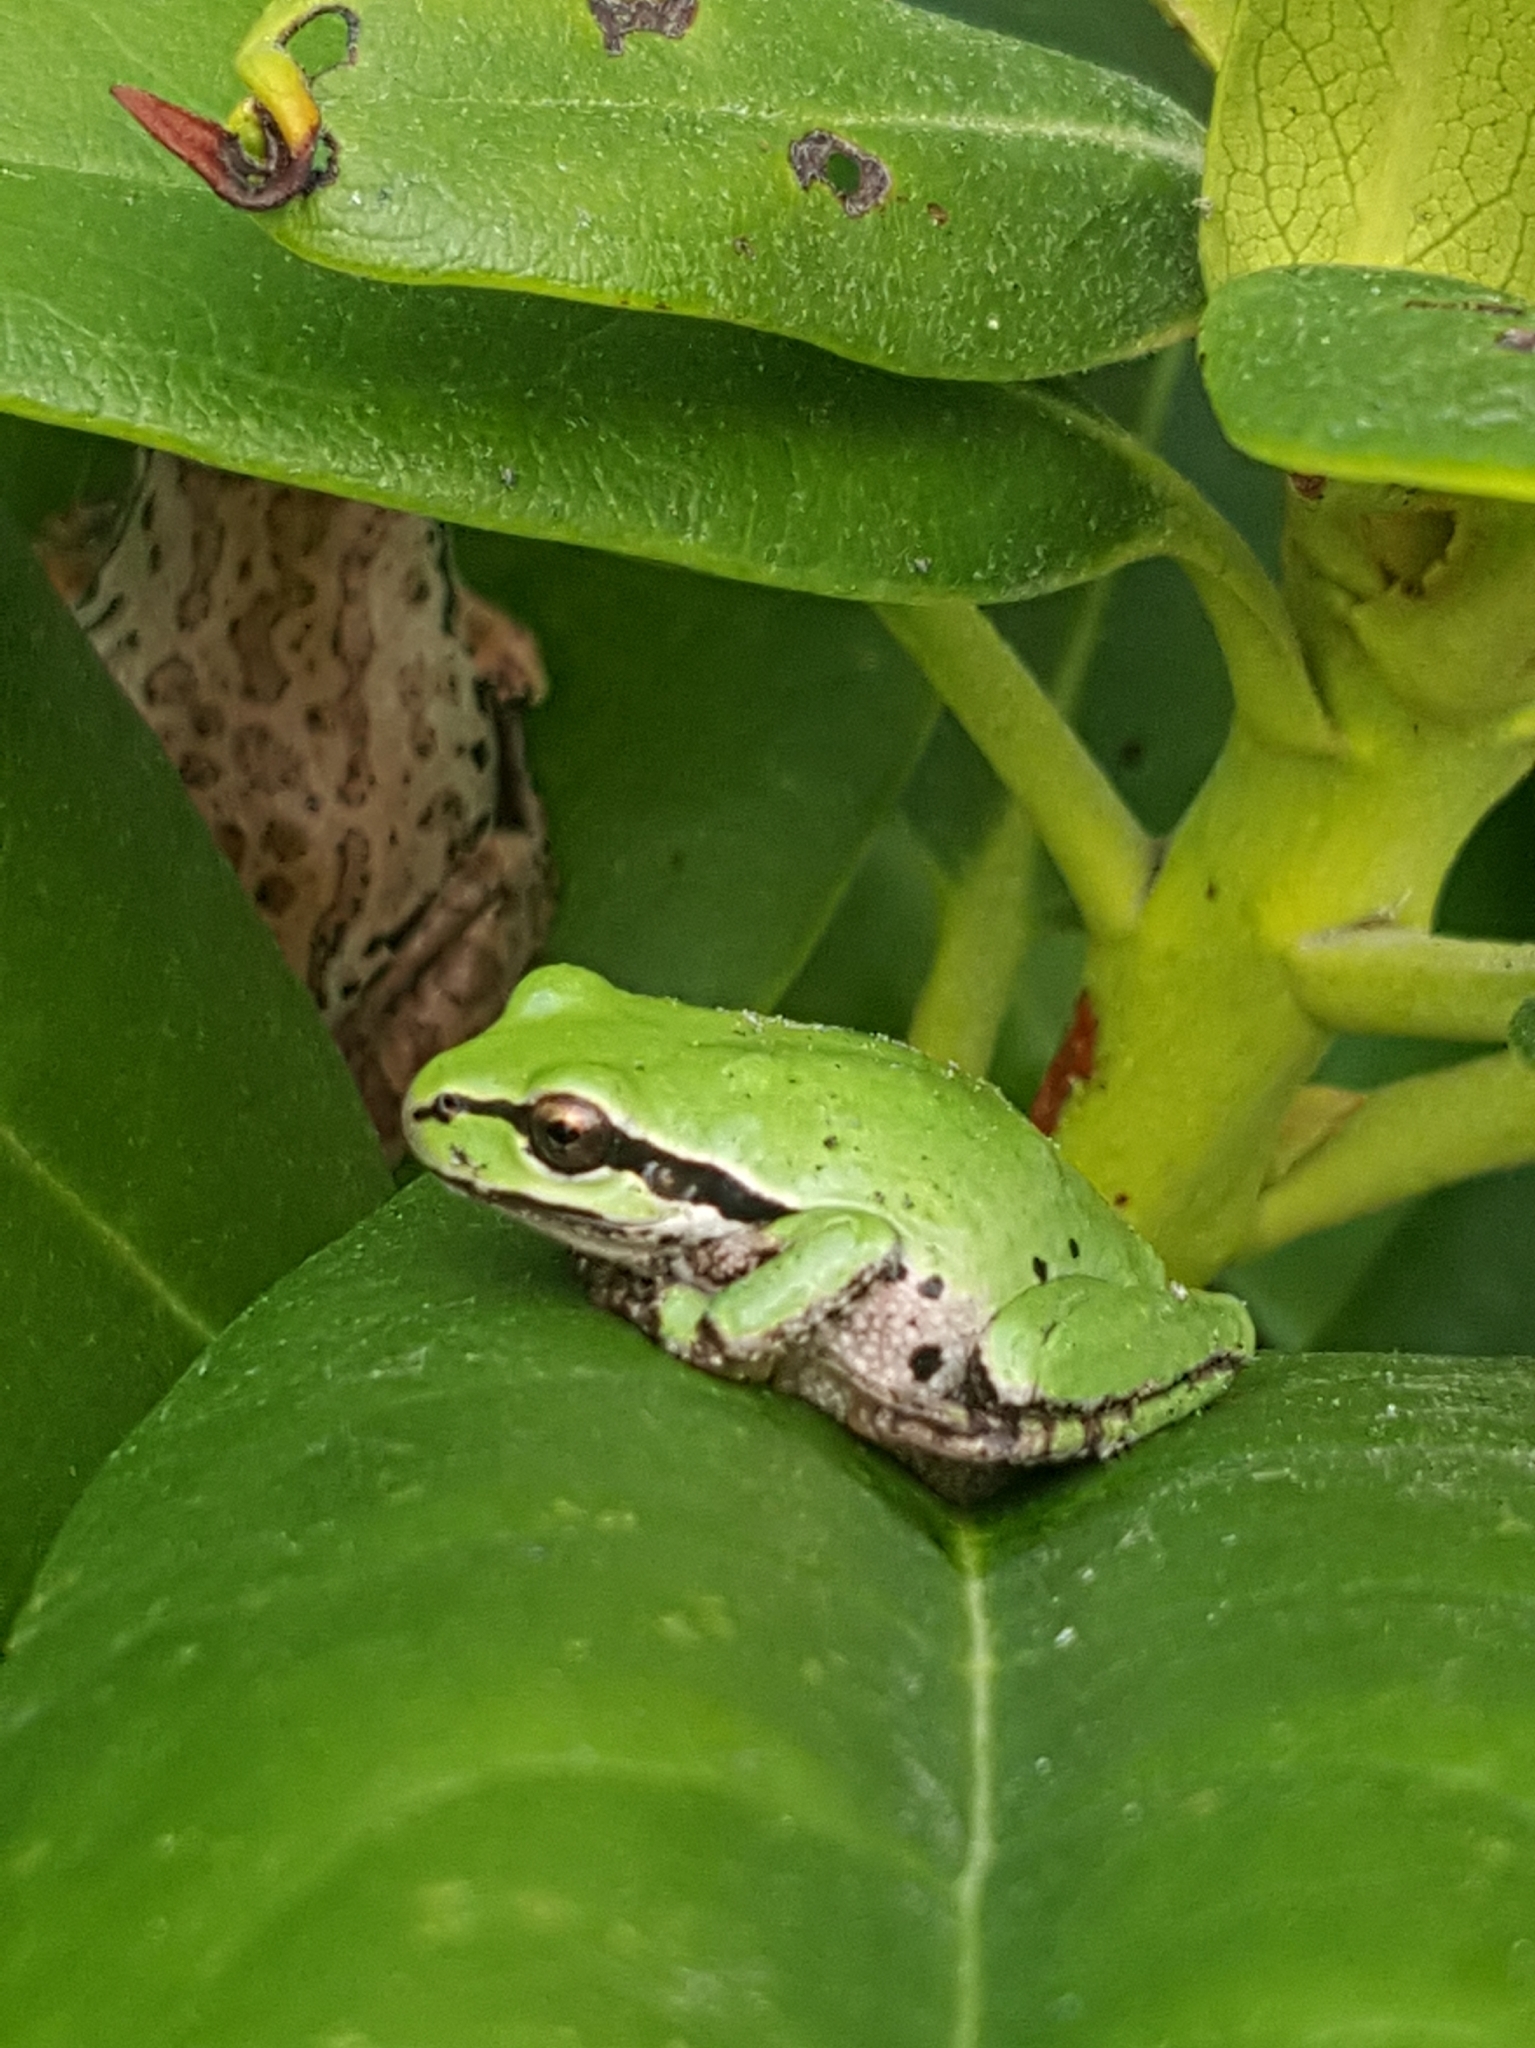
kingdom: Animalia
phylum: Chordata
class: Amphibia
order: Anura
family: Hylidae
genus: Pseudacris
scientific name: Pseudacris regilla
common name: Pacific chorus frog
